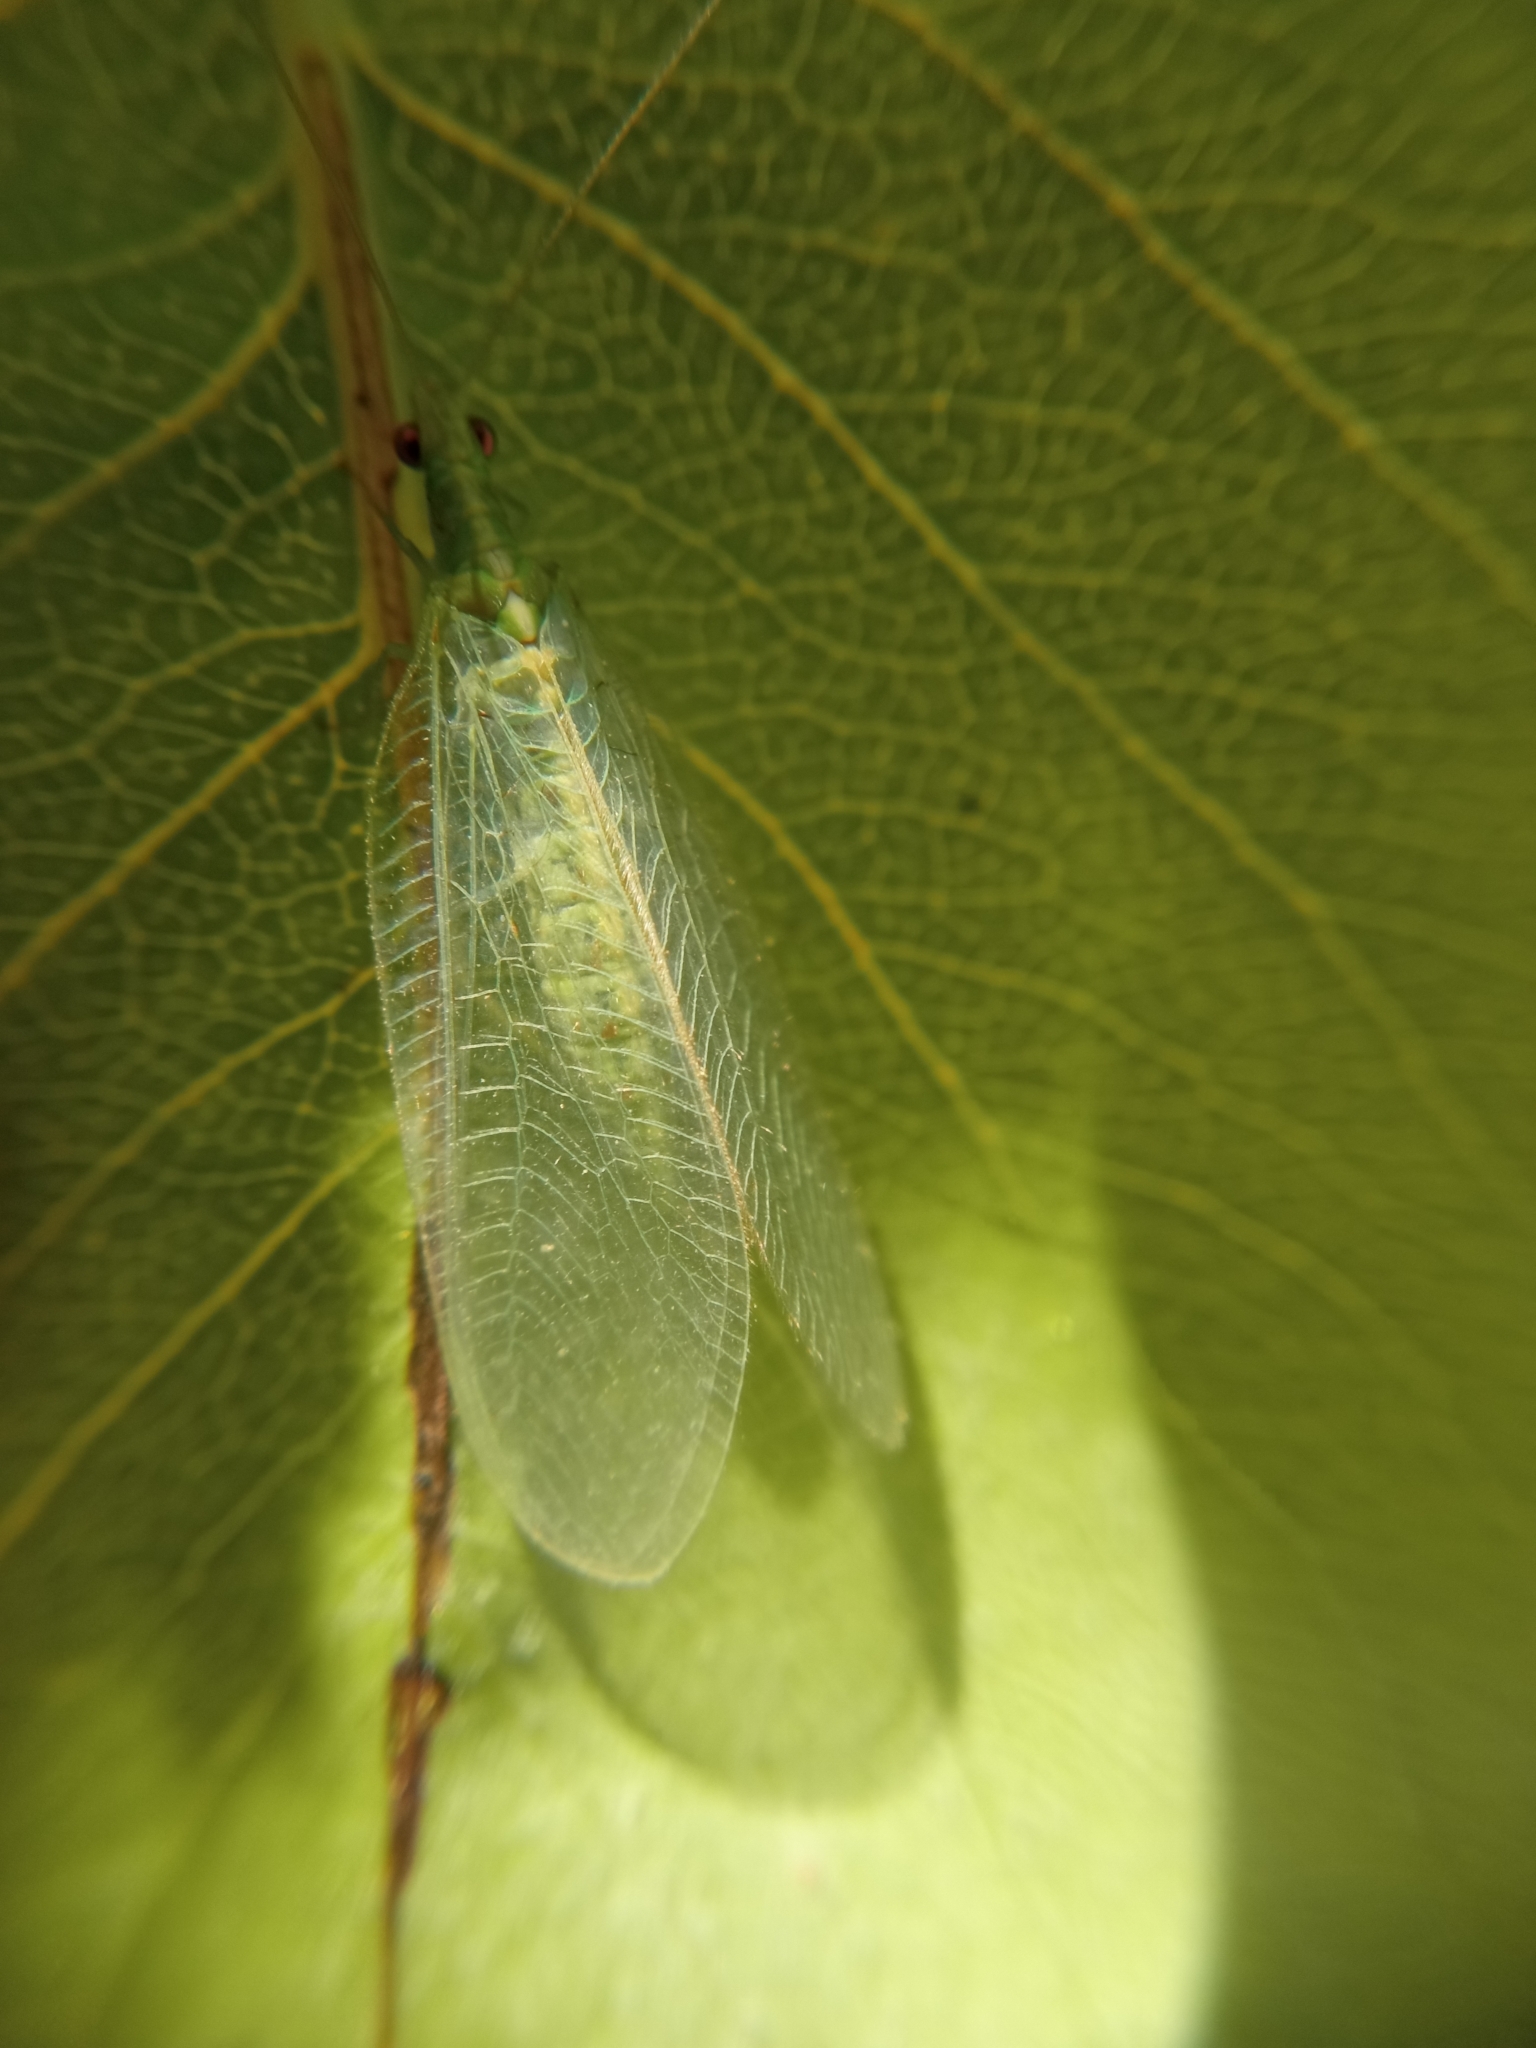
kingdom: Animalia
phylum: Arthropoda
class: Insecta
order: Neuroptera
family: Chrysopidae
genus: Chrysoperla
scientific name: Chrysoperla
